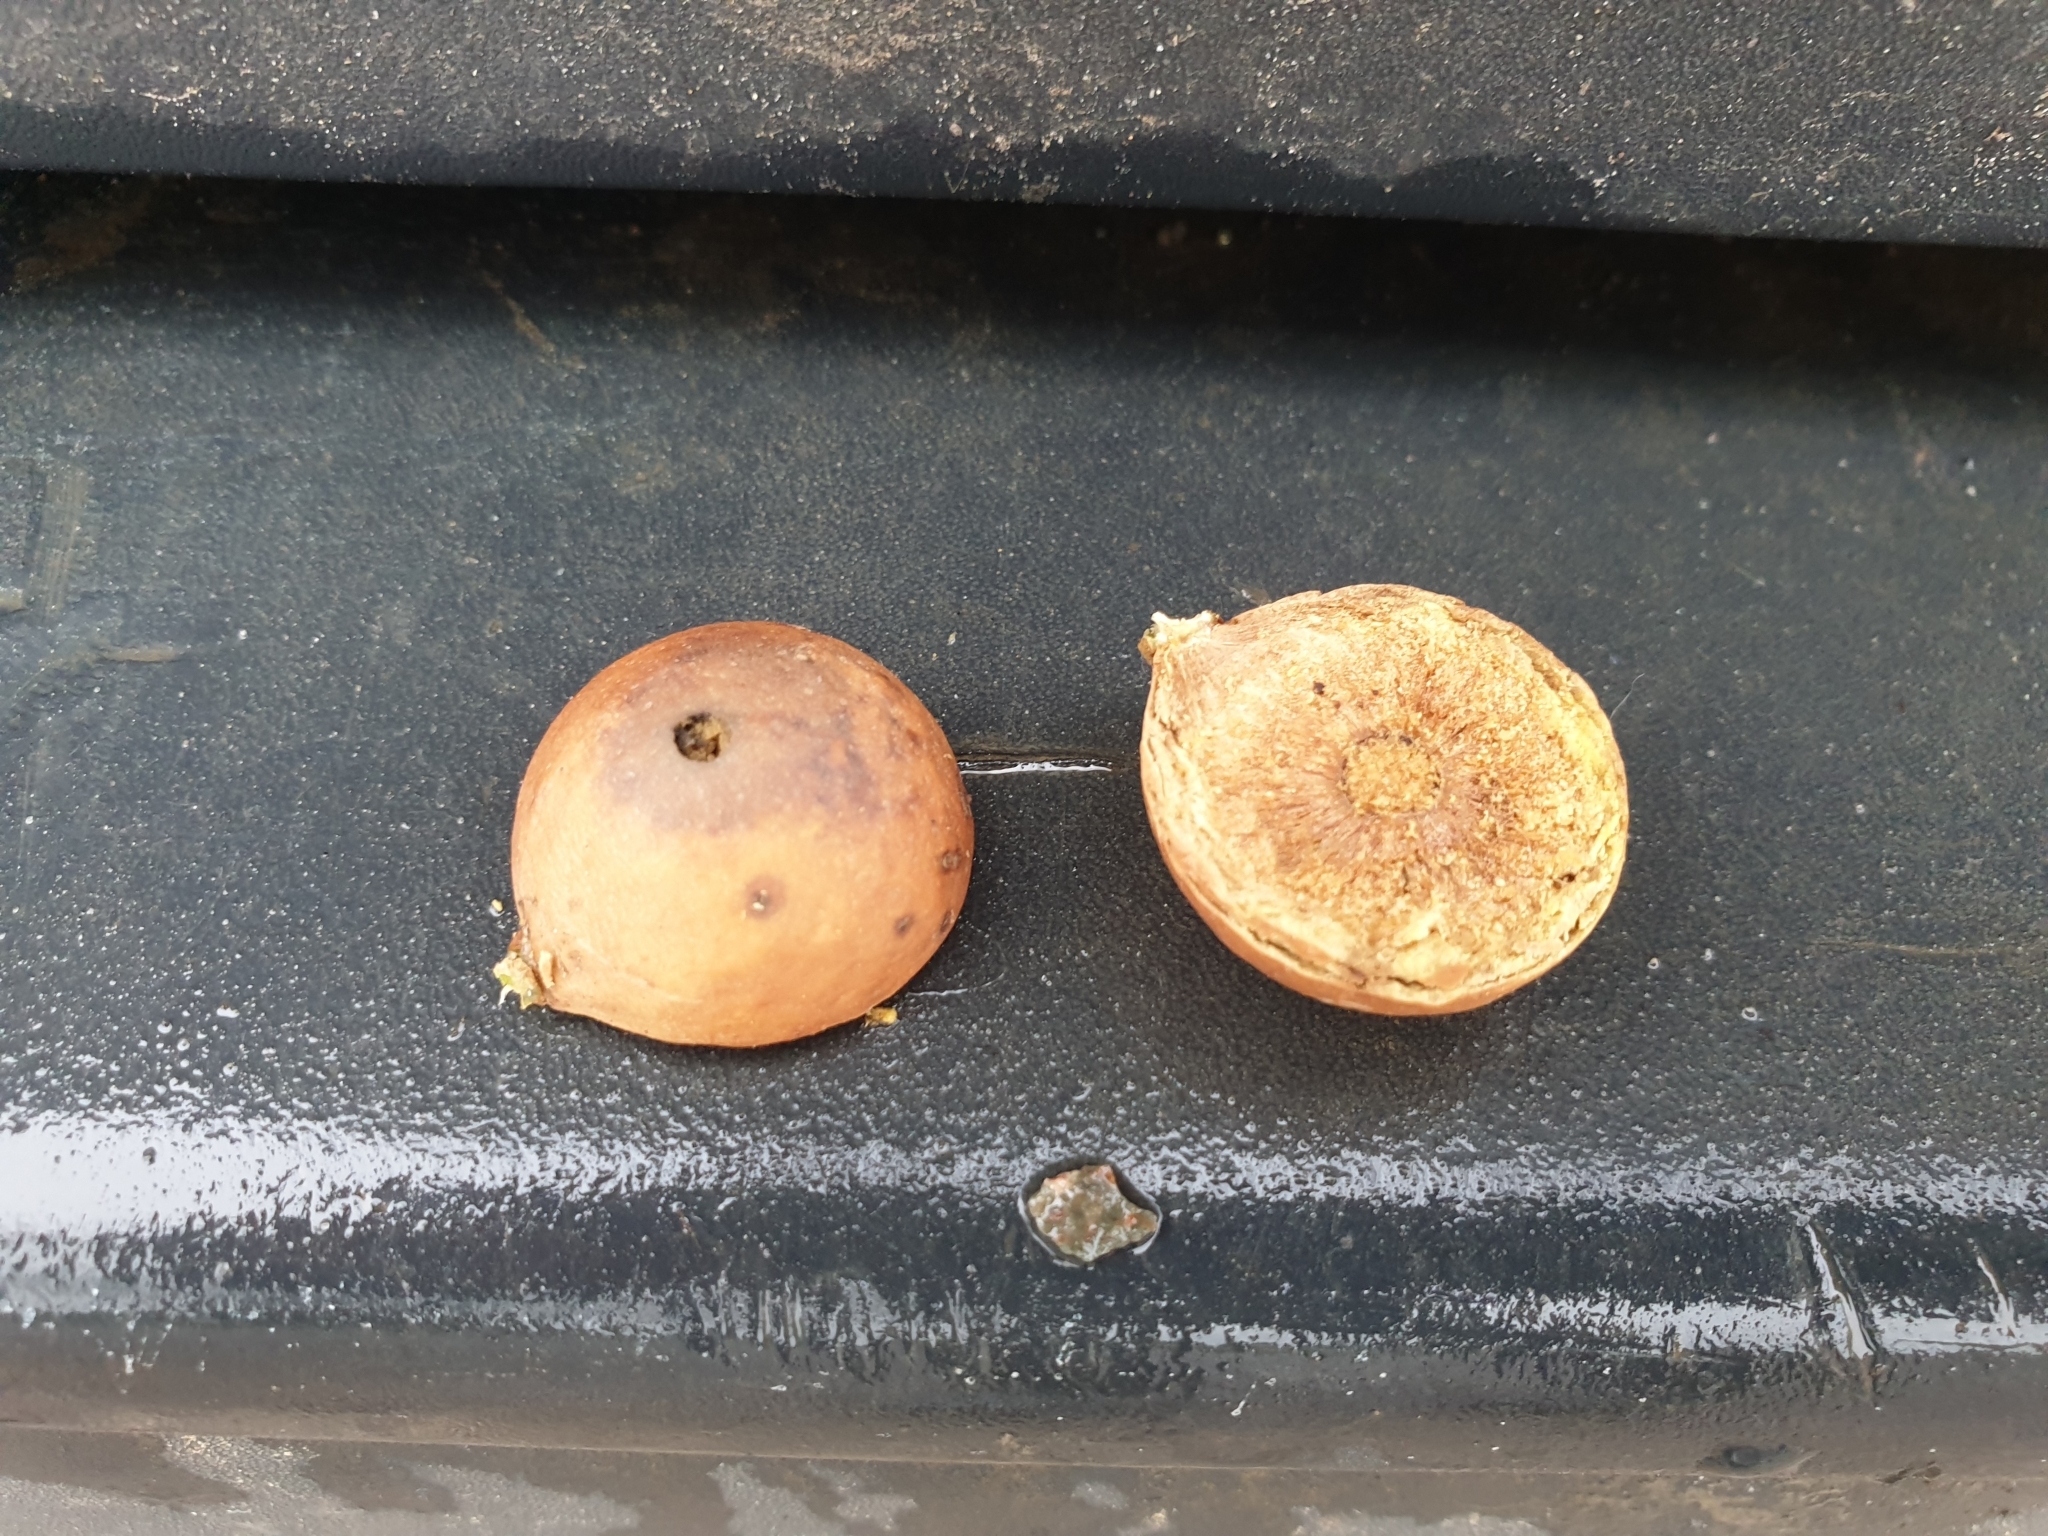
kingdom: Animalia
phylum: Arthropoda
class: Insecta
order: Hymenoptera
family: Cynipidae
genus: Andricus
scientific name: Andricus kollari
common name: Marble gall
